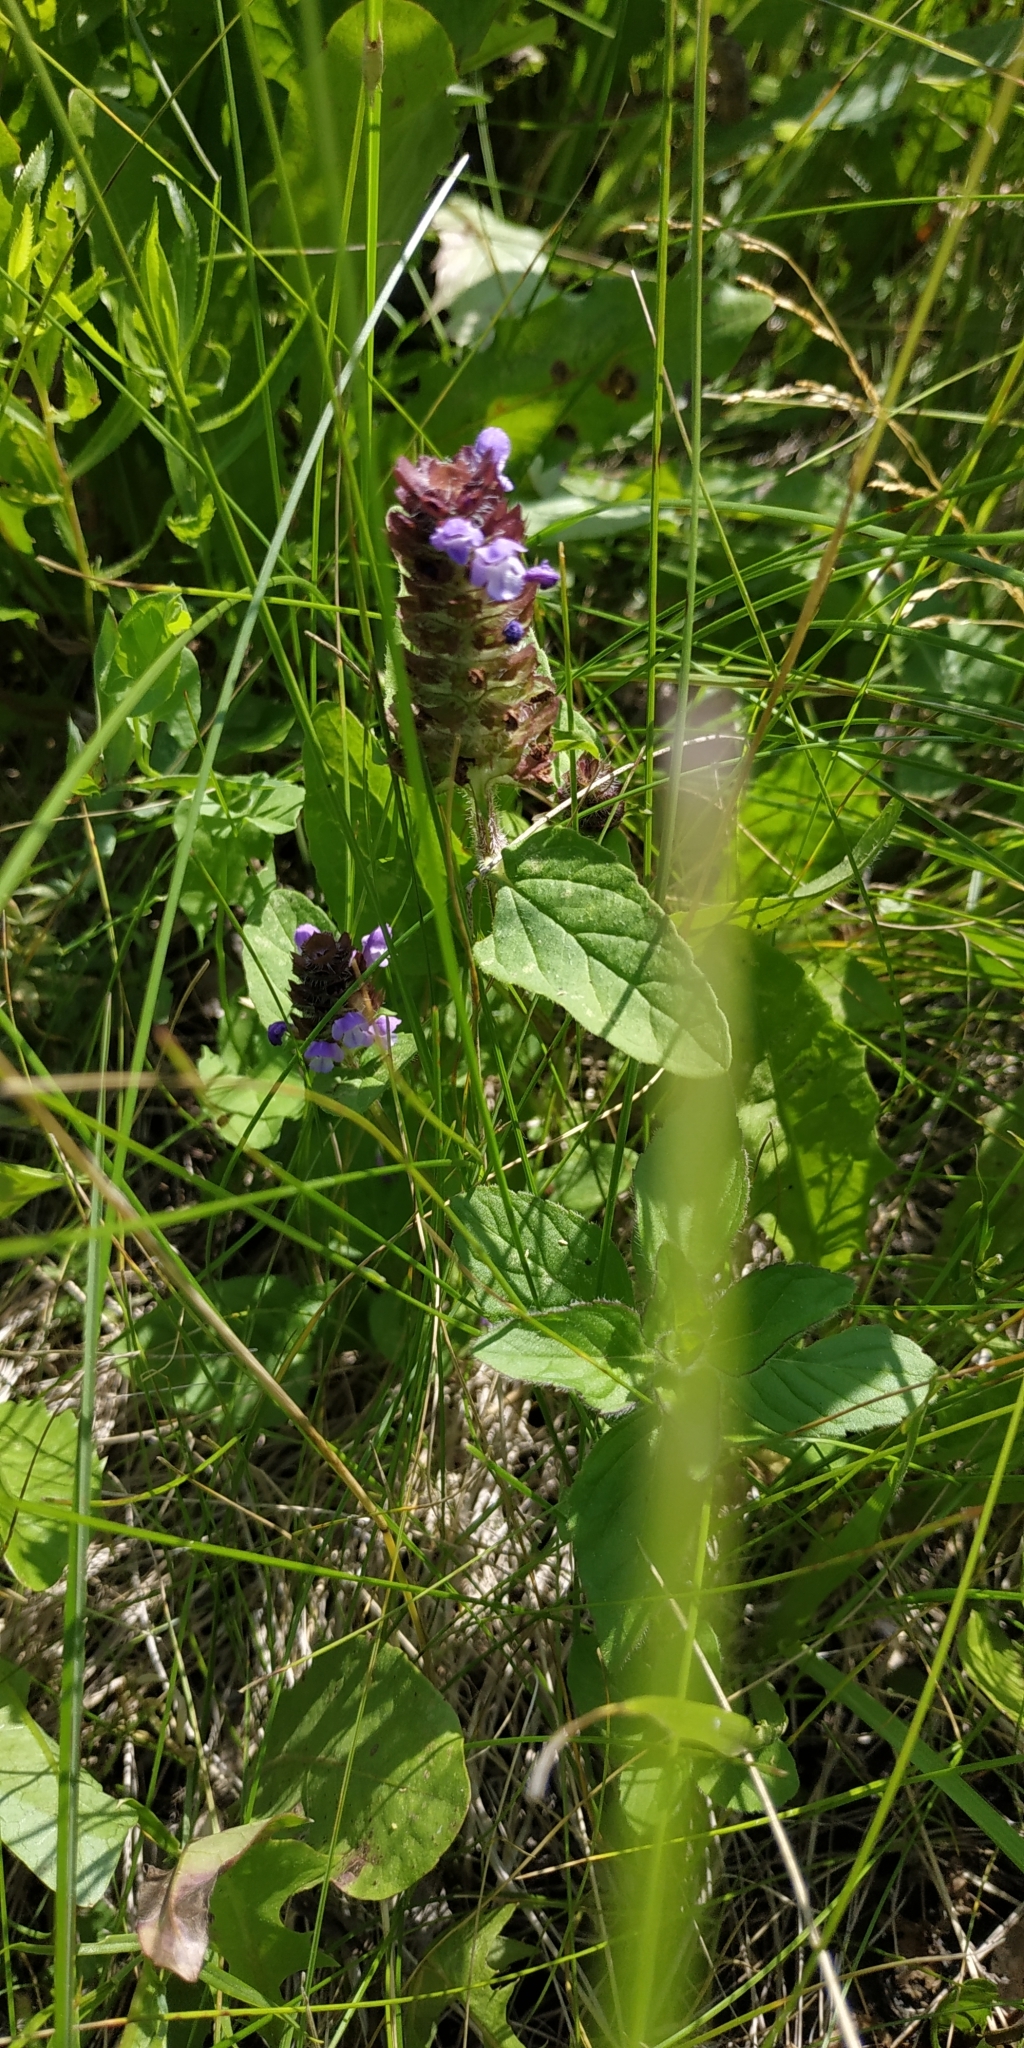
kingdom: Plantae
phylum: Tracheophyta
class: Magnoliopsida
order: Lamiales
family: Lamiaceae
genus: Prunella
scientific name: Prunella vulgaris
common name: Heal-all
